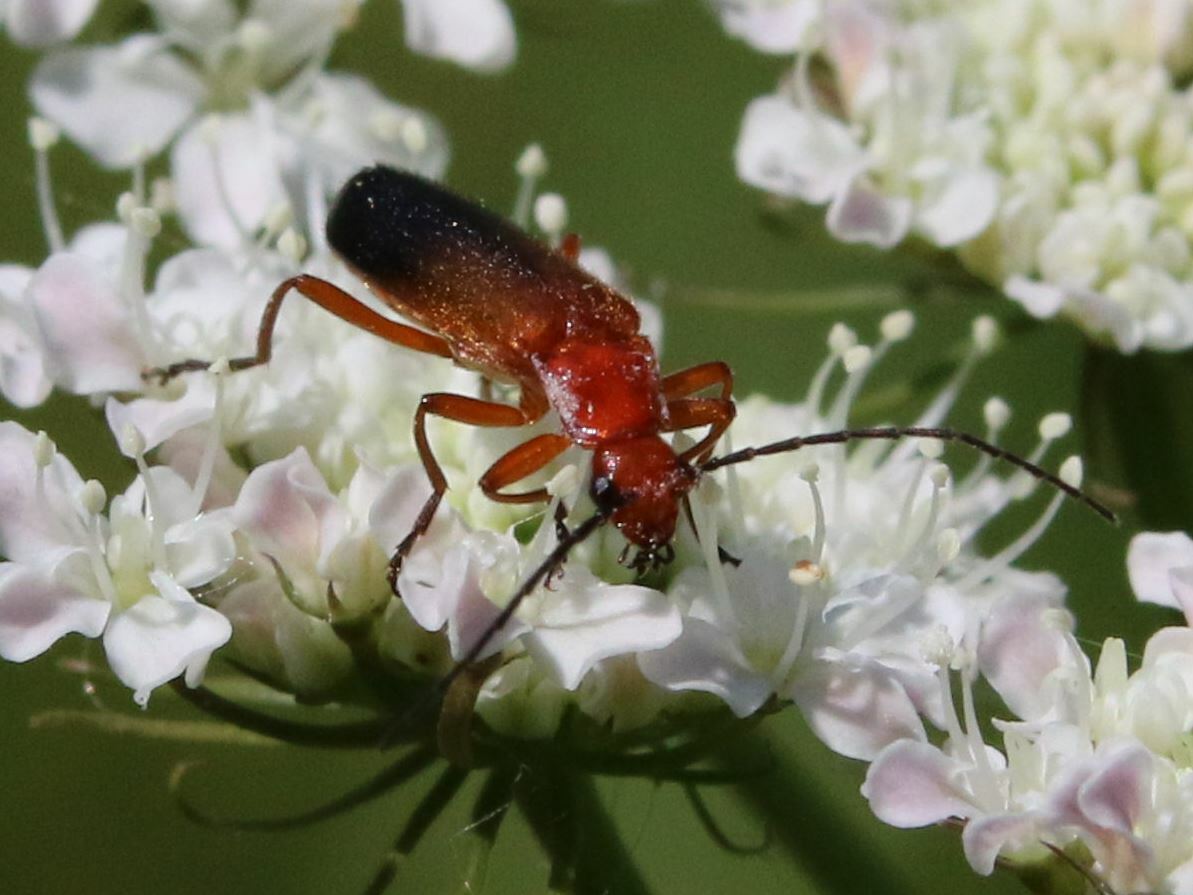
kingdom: Animalia
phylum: Arthropoda
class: Insecta
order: Coleoptera
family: Cantharidae
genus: Rhagonycha
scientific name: Rhagonycha fulva
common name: Common red soldier beetle
